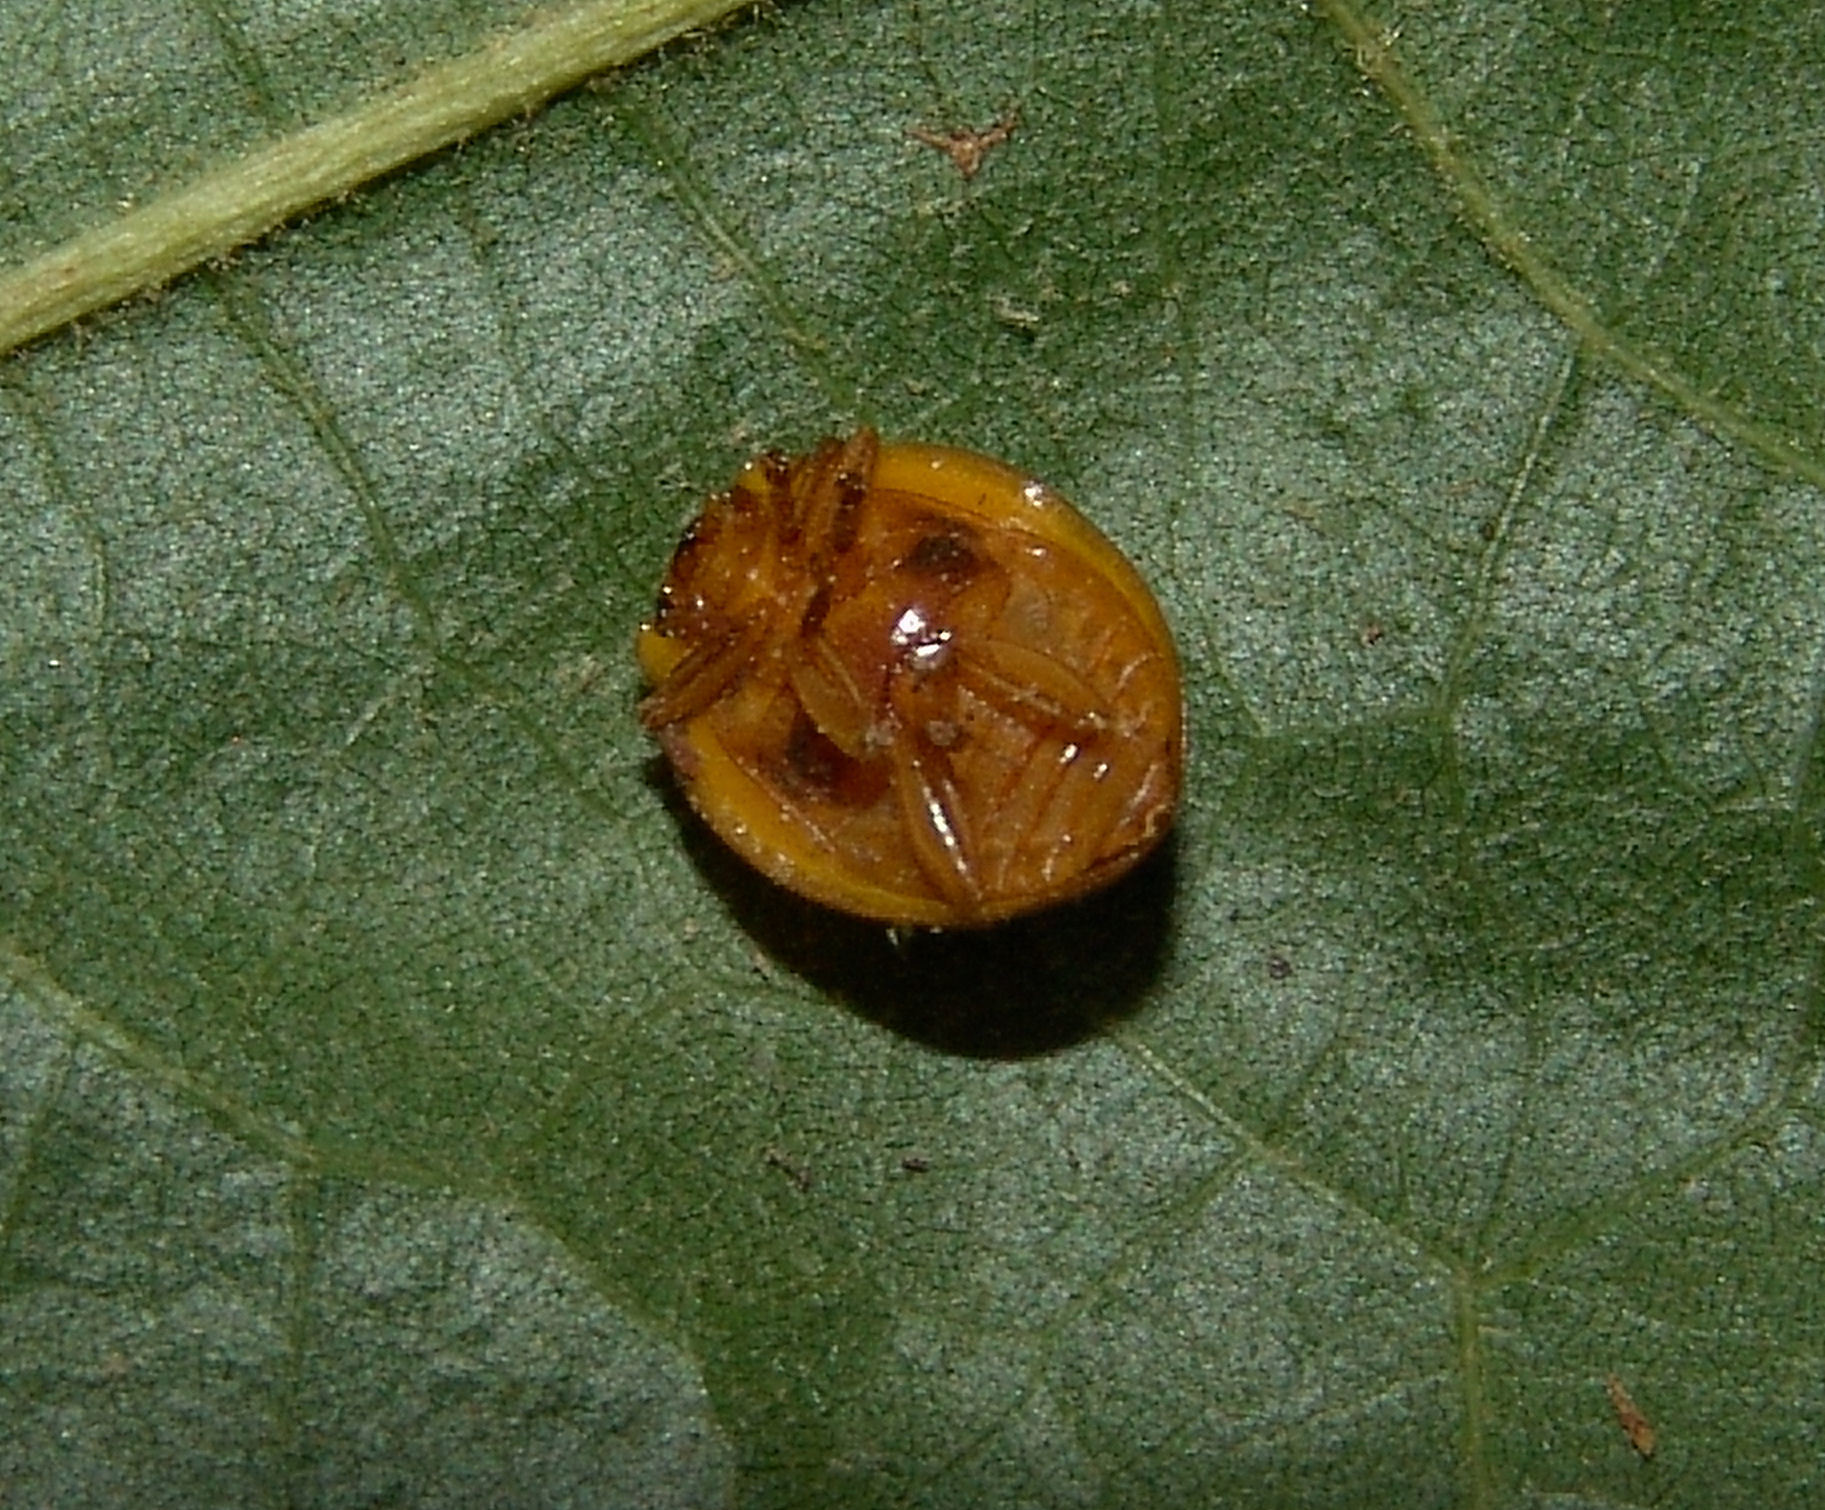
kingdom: Animalia
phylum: Arthropoda
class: Insecta
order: Coleoptera
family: Coccinellidae
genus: Epilachna
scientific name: Epilachna borealis
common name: Squash beetle
